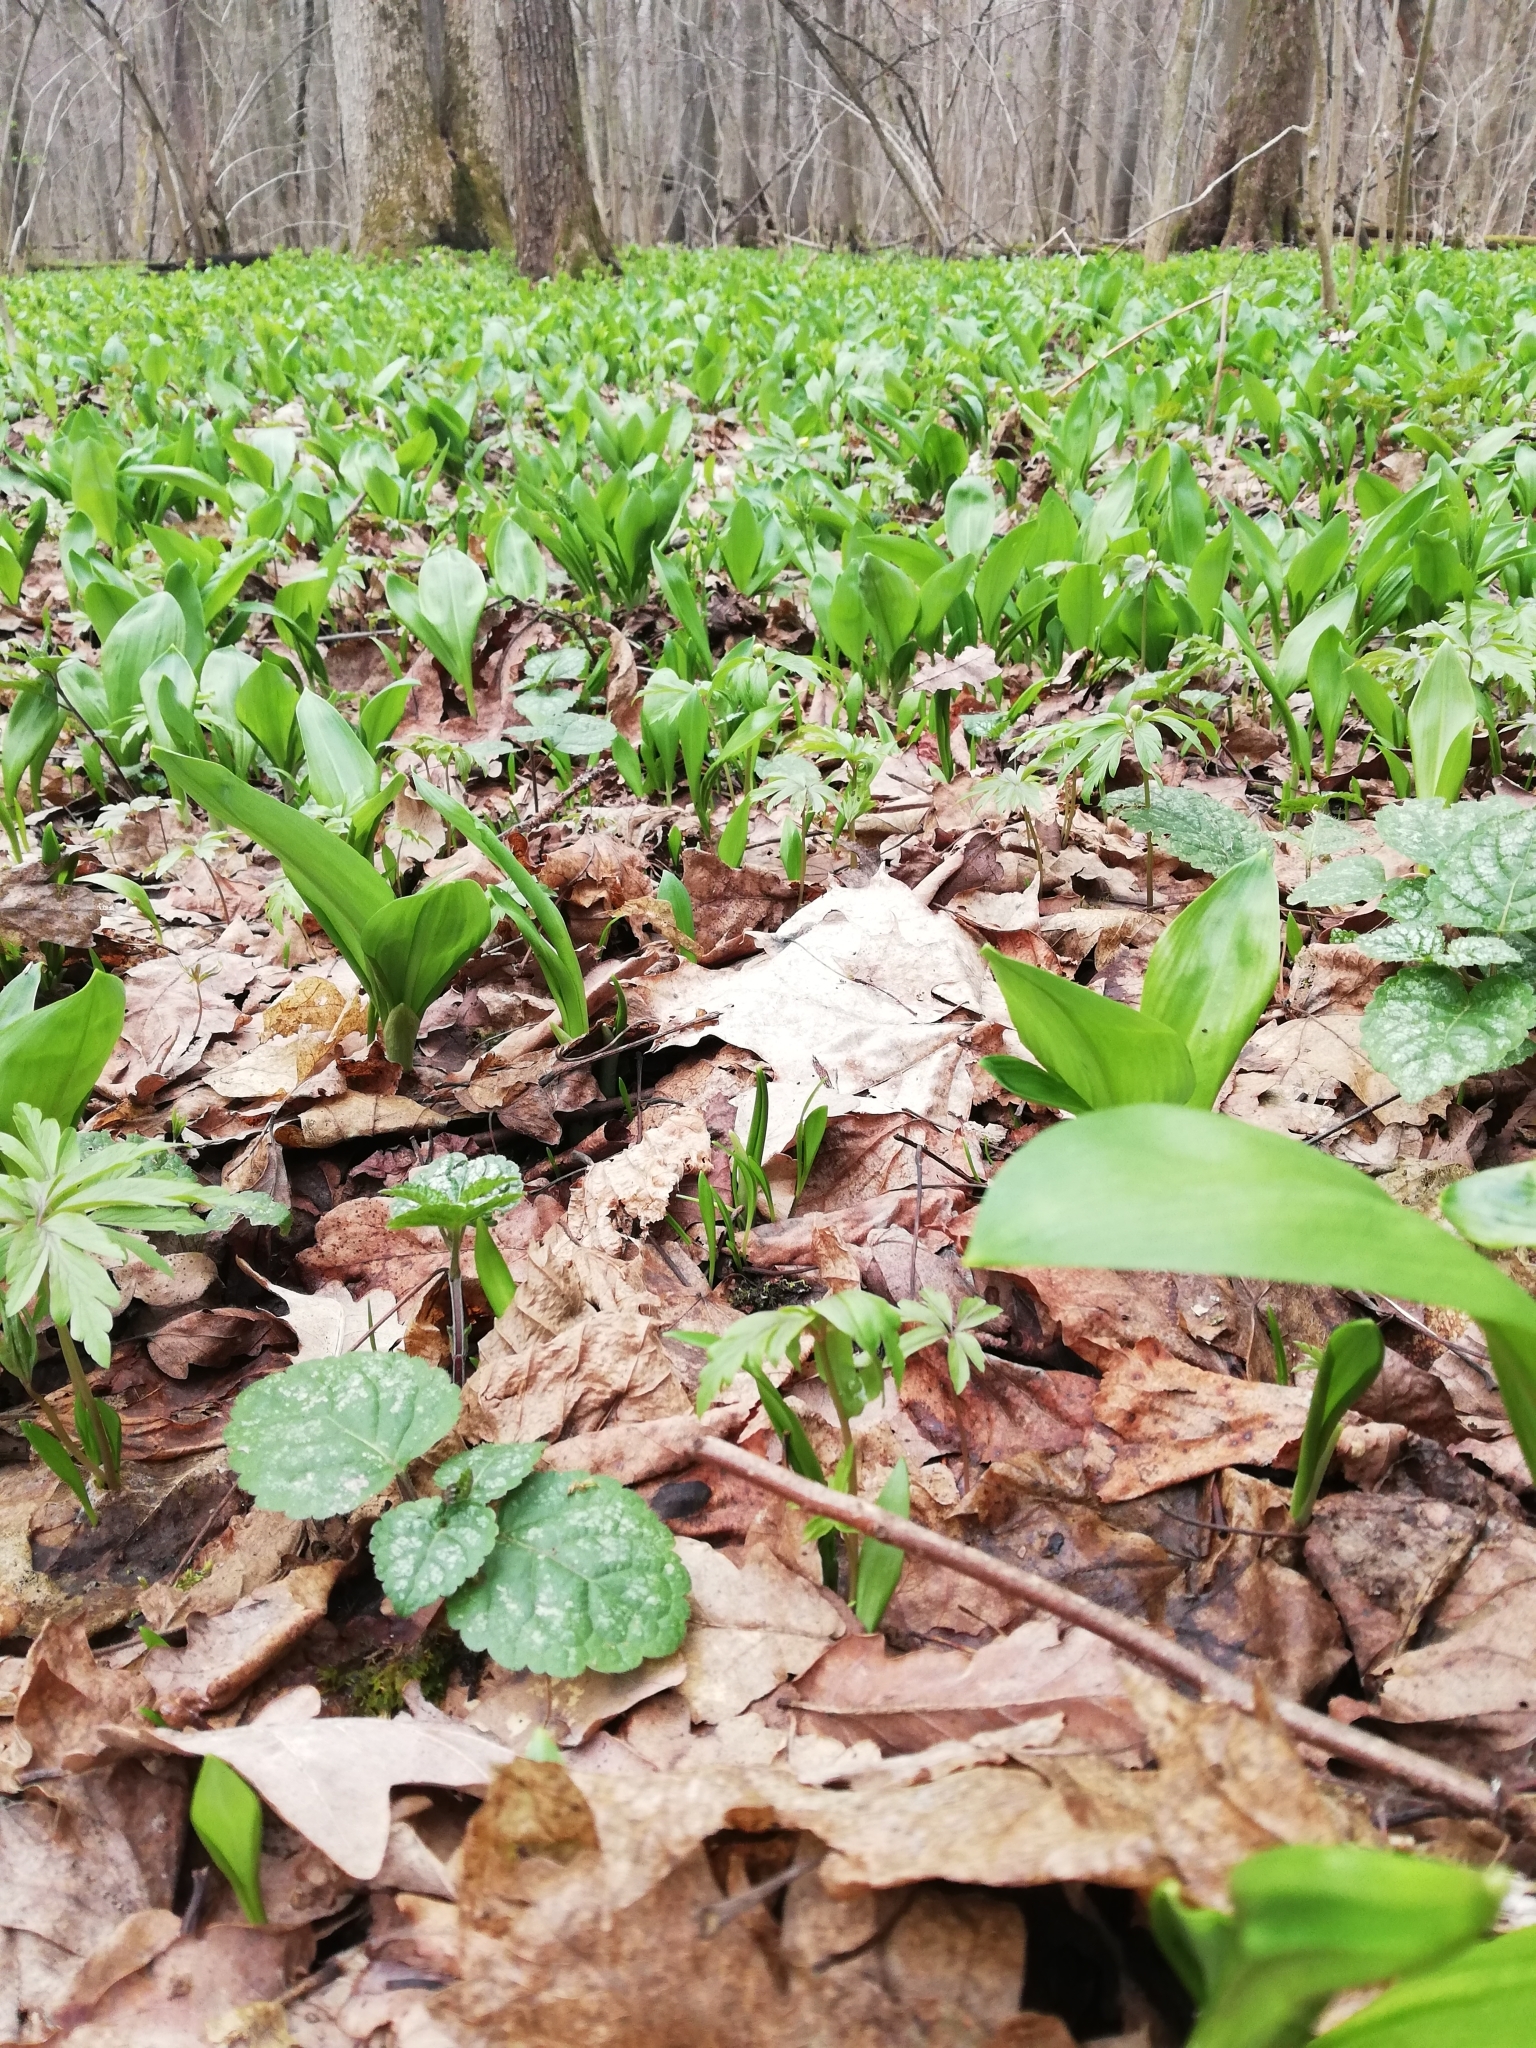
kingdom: Plantae
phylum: Tracheophyta
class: Liliopsida
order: Asparagales
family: Amaryllidaceae
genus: Allium
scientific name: Allium ursinum
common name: Ramsons
